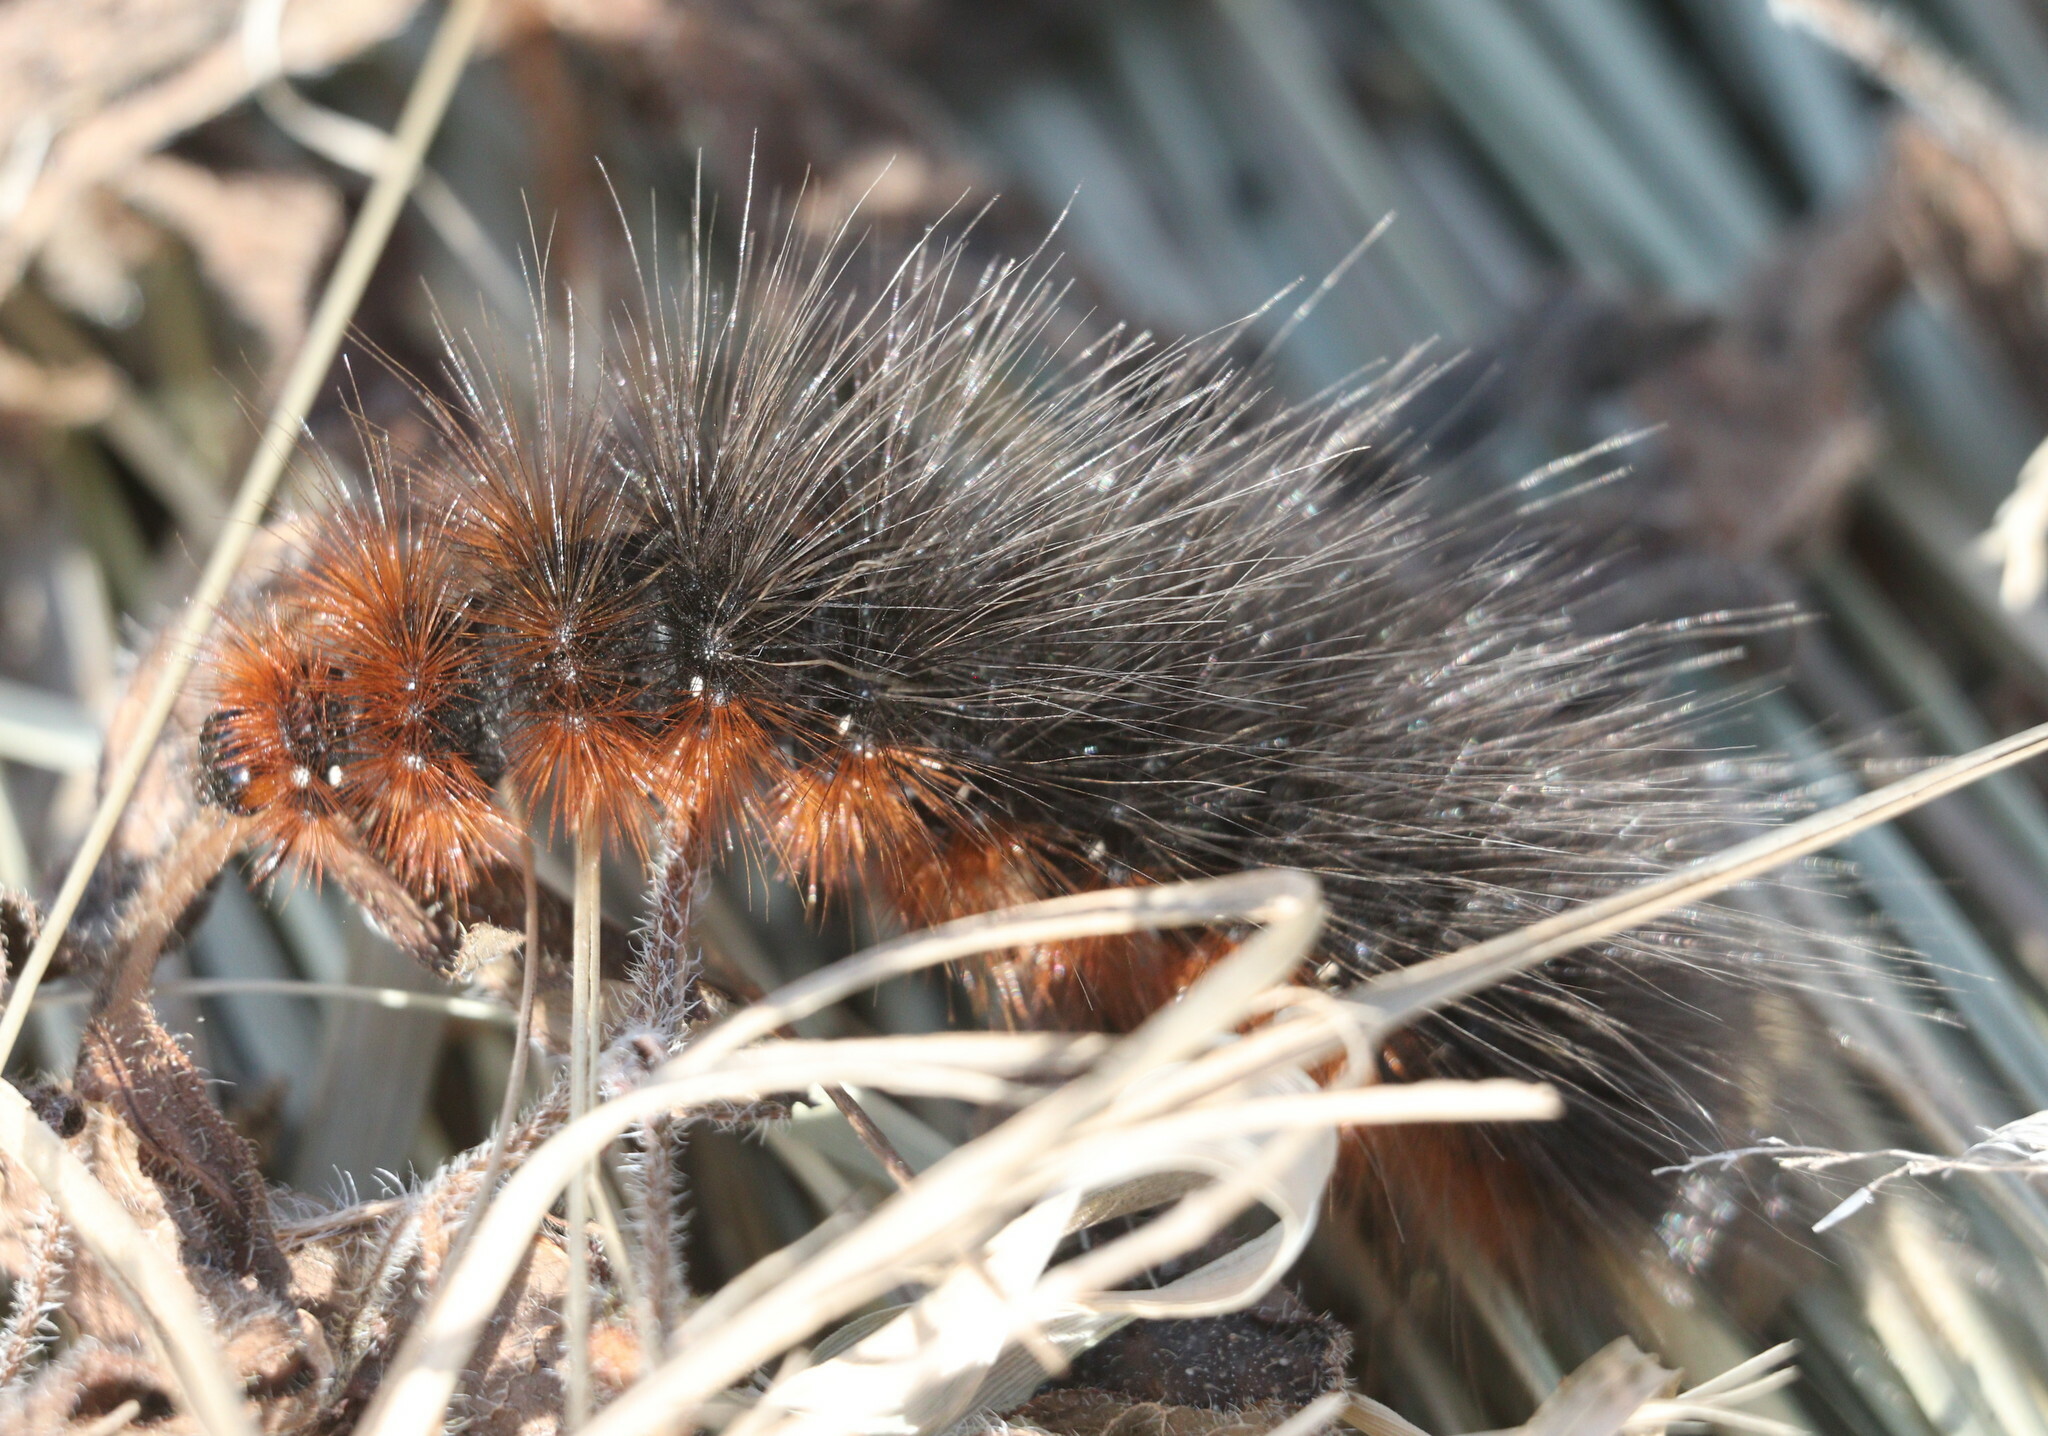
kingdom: Animalia
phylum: Arthropoda
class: Insecta
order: Lepidoptera
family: Erebidae
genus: Arctia
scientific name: Arctia caja
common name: Garden tiger
